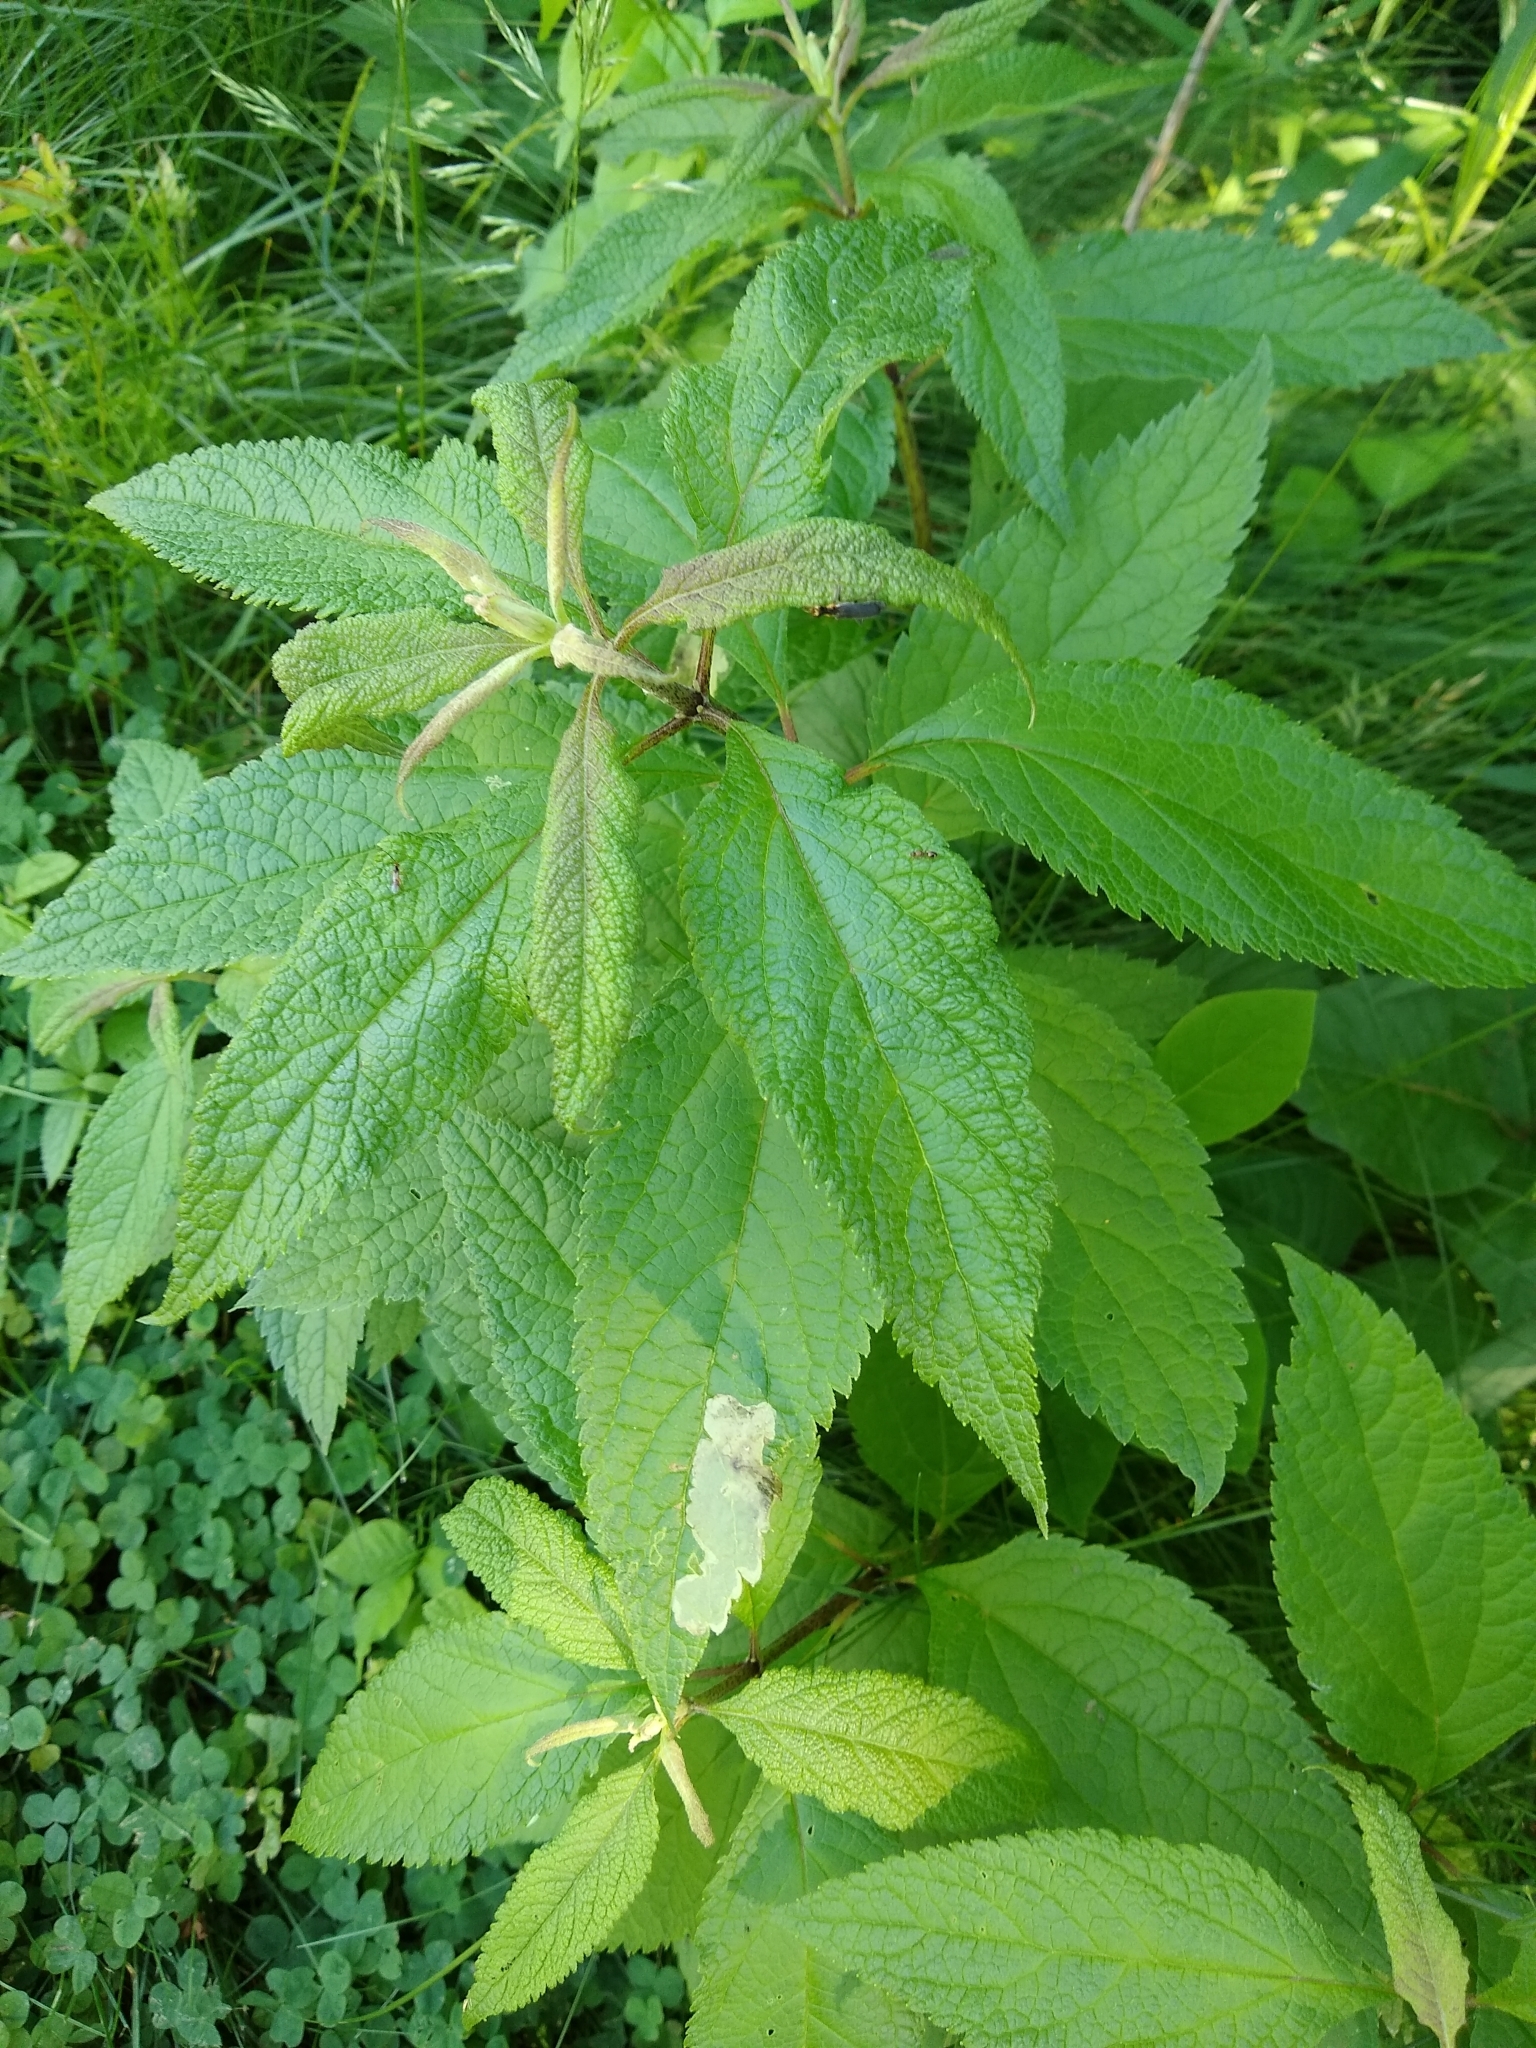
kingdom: Plantae
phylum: Tracheophyta
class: Magnoliopsida
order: Asterales
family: Asteraceae
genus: Eutrochium
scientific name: Eutrochium maculatum
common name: Spotted joe pye weed
